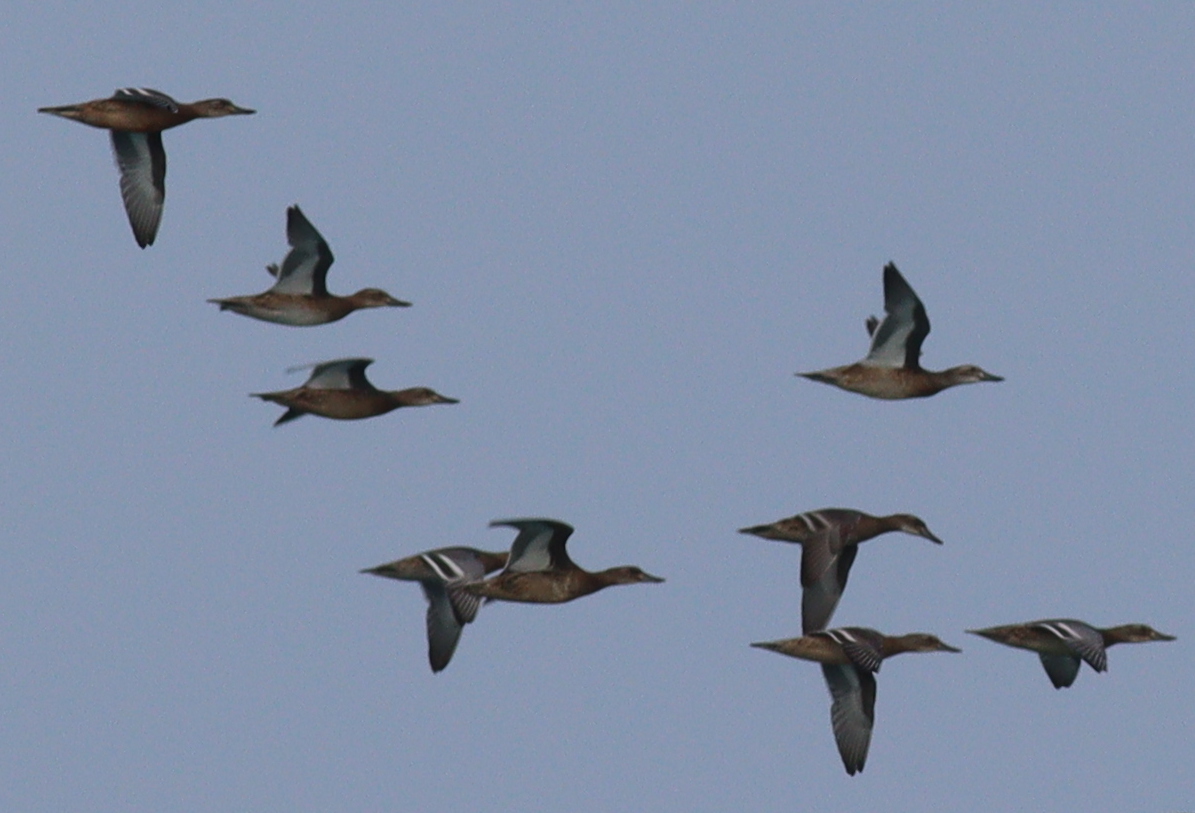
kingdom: Animalia
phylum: Chordata
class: Aves
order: Anseriformes
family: Anatidae
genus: Spatula
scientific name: Spatula querquedula
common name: Garganey
